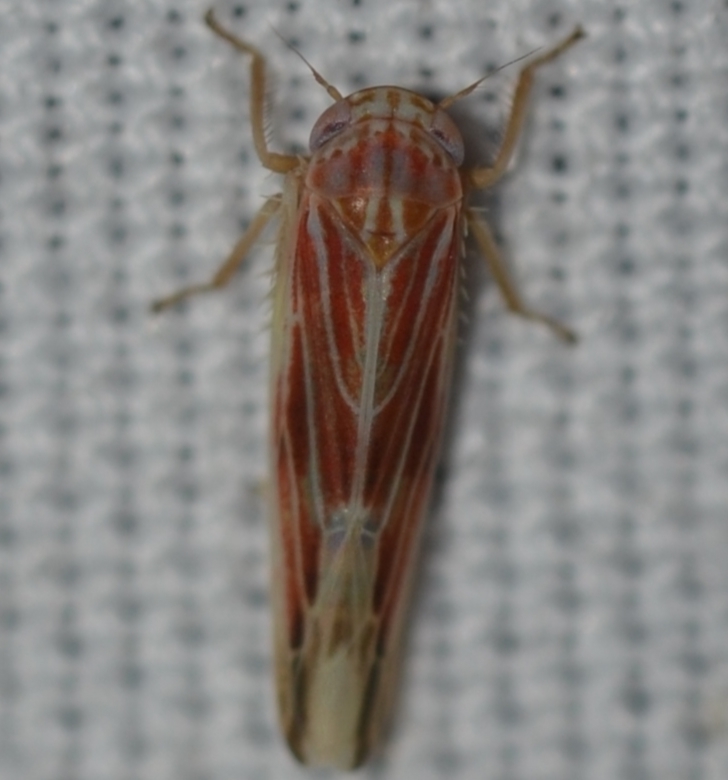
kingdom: Animalia
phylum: Arthropoda
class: Insecta
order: Hemiptera
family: Cicadellidae
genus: Balclutha
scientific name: Balclutha rubrostriata
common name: Red-streaked leafhopper
